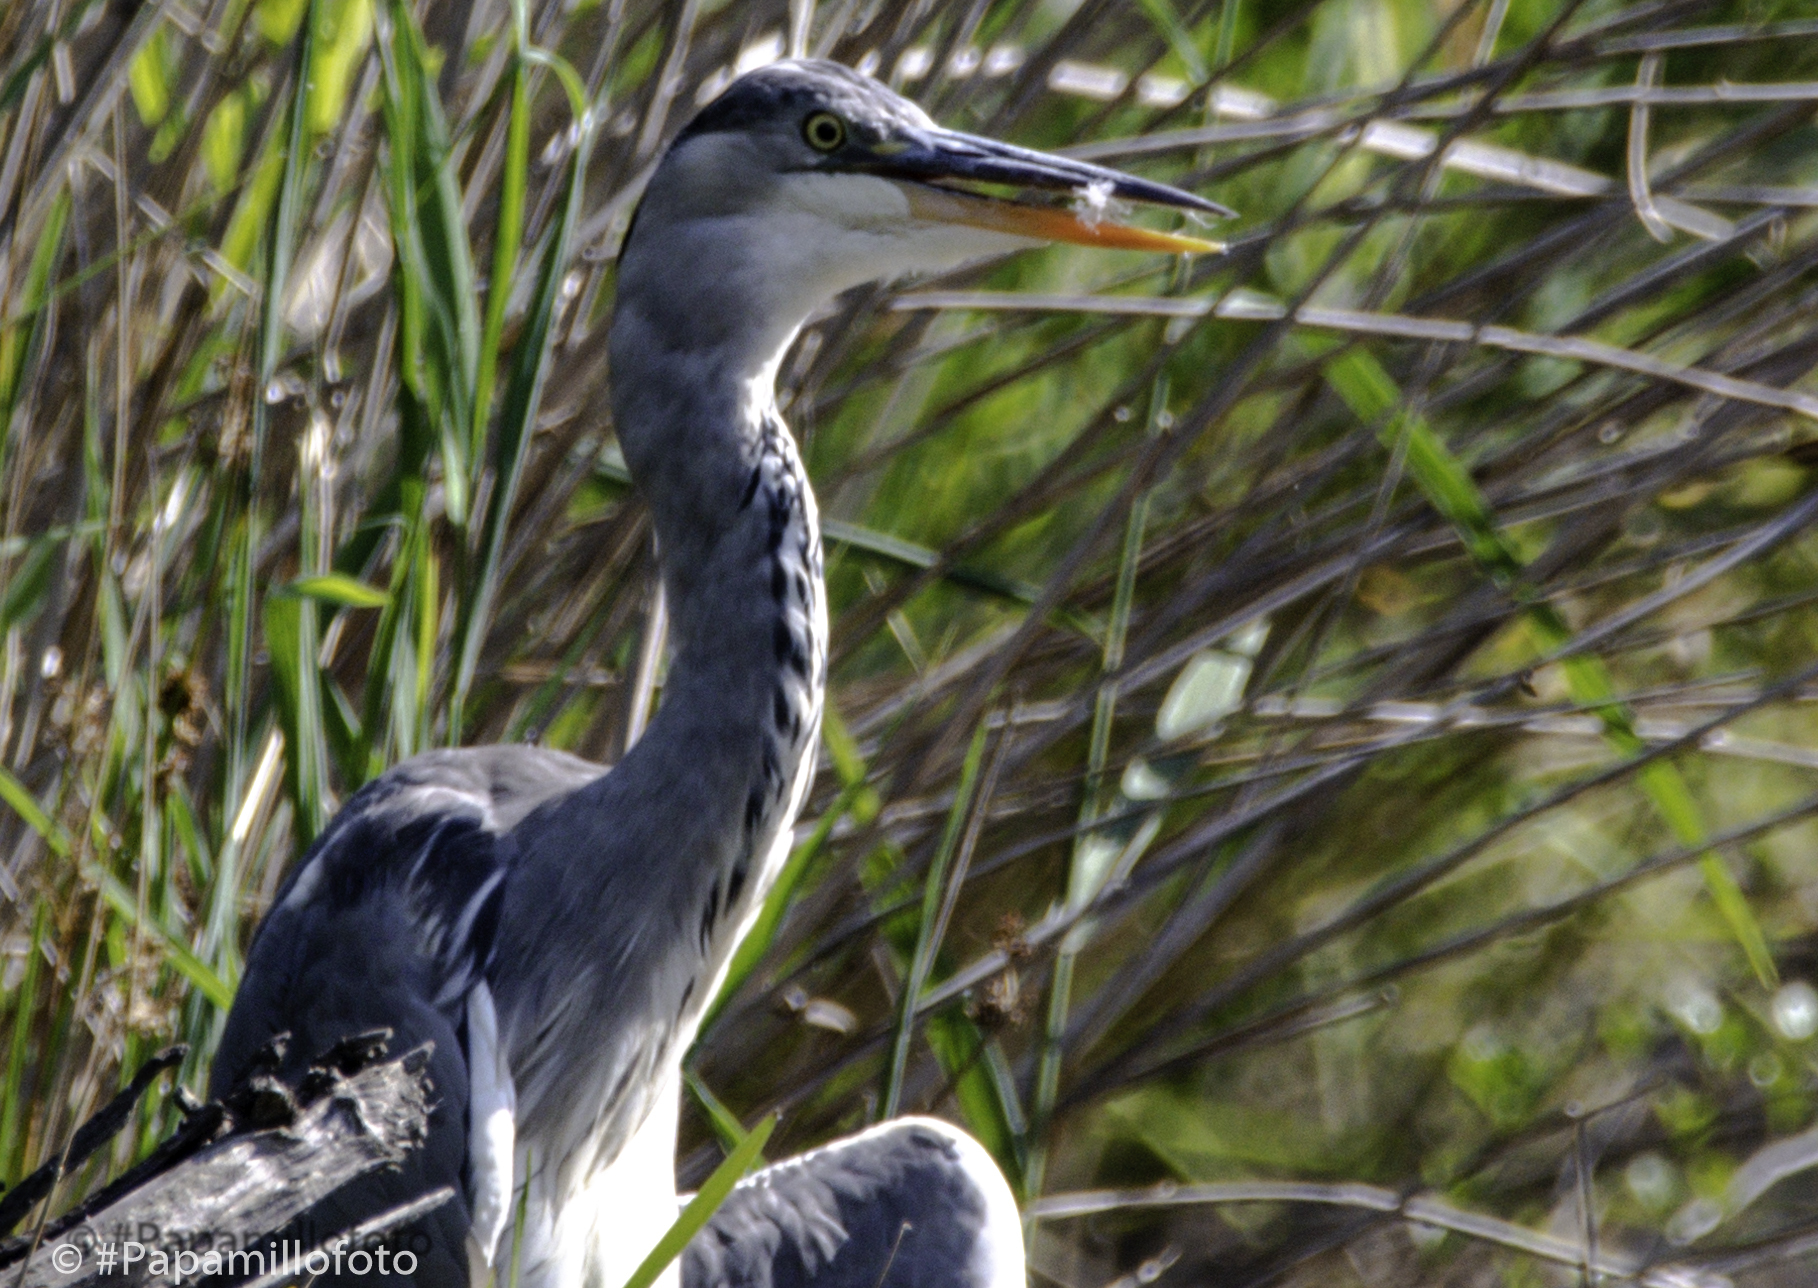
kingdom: Animalia
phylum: Chordata
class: Aves
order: Pelecaniformes
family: Ardeidae
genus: Ardea
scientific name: Ardea cinerea
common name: Grey heron
